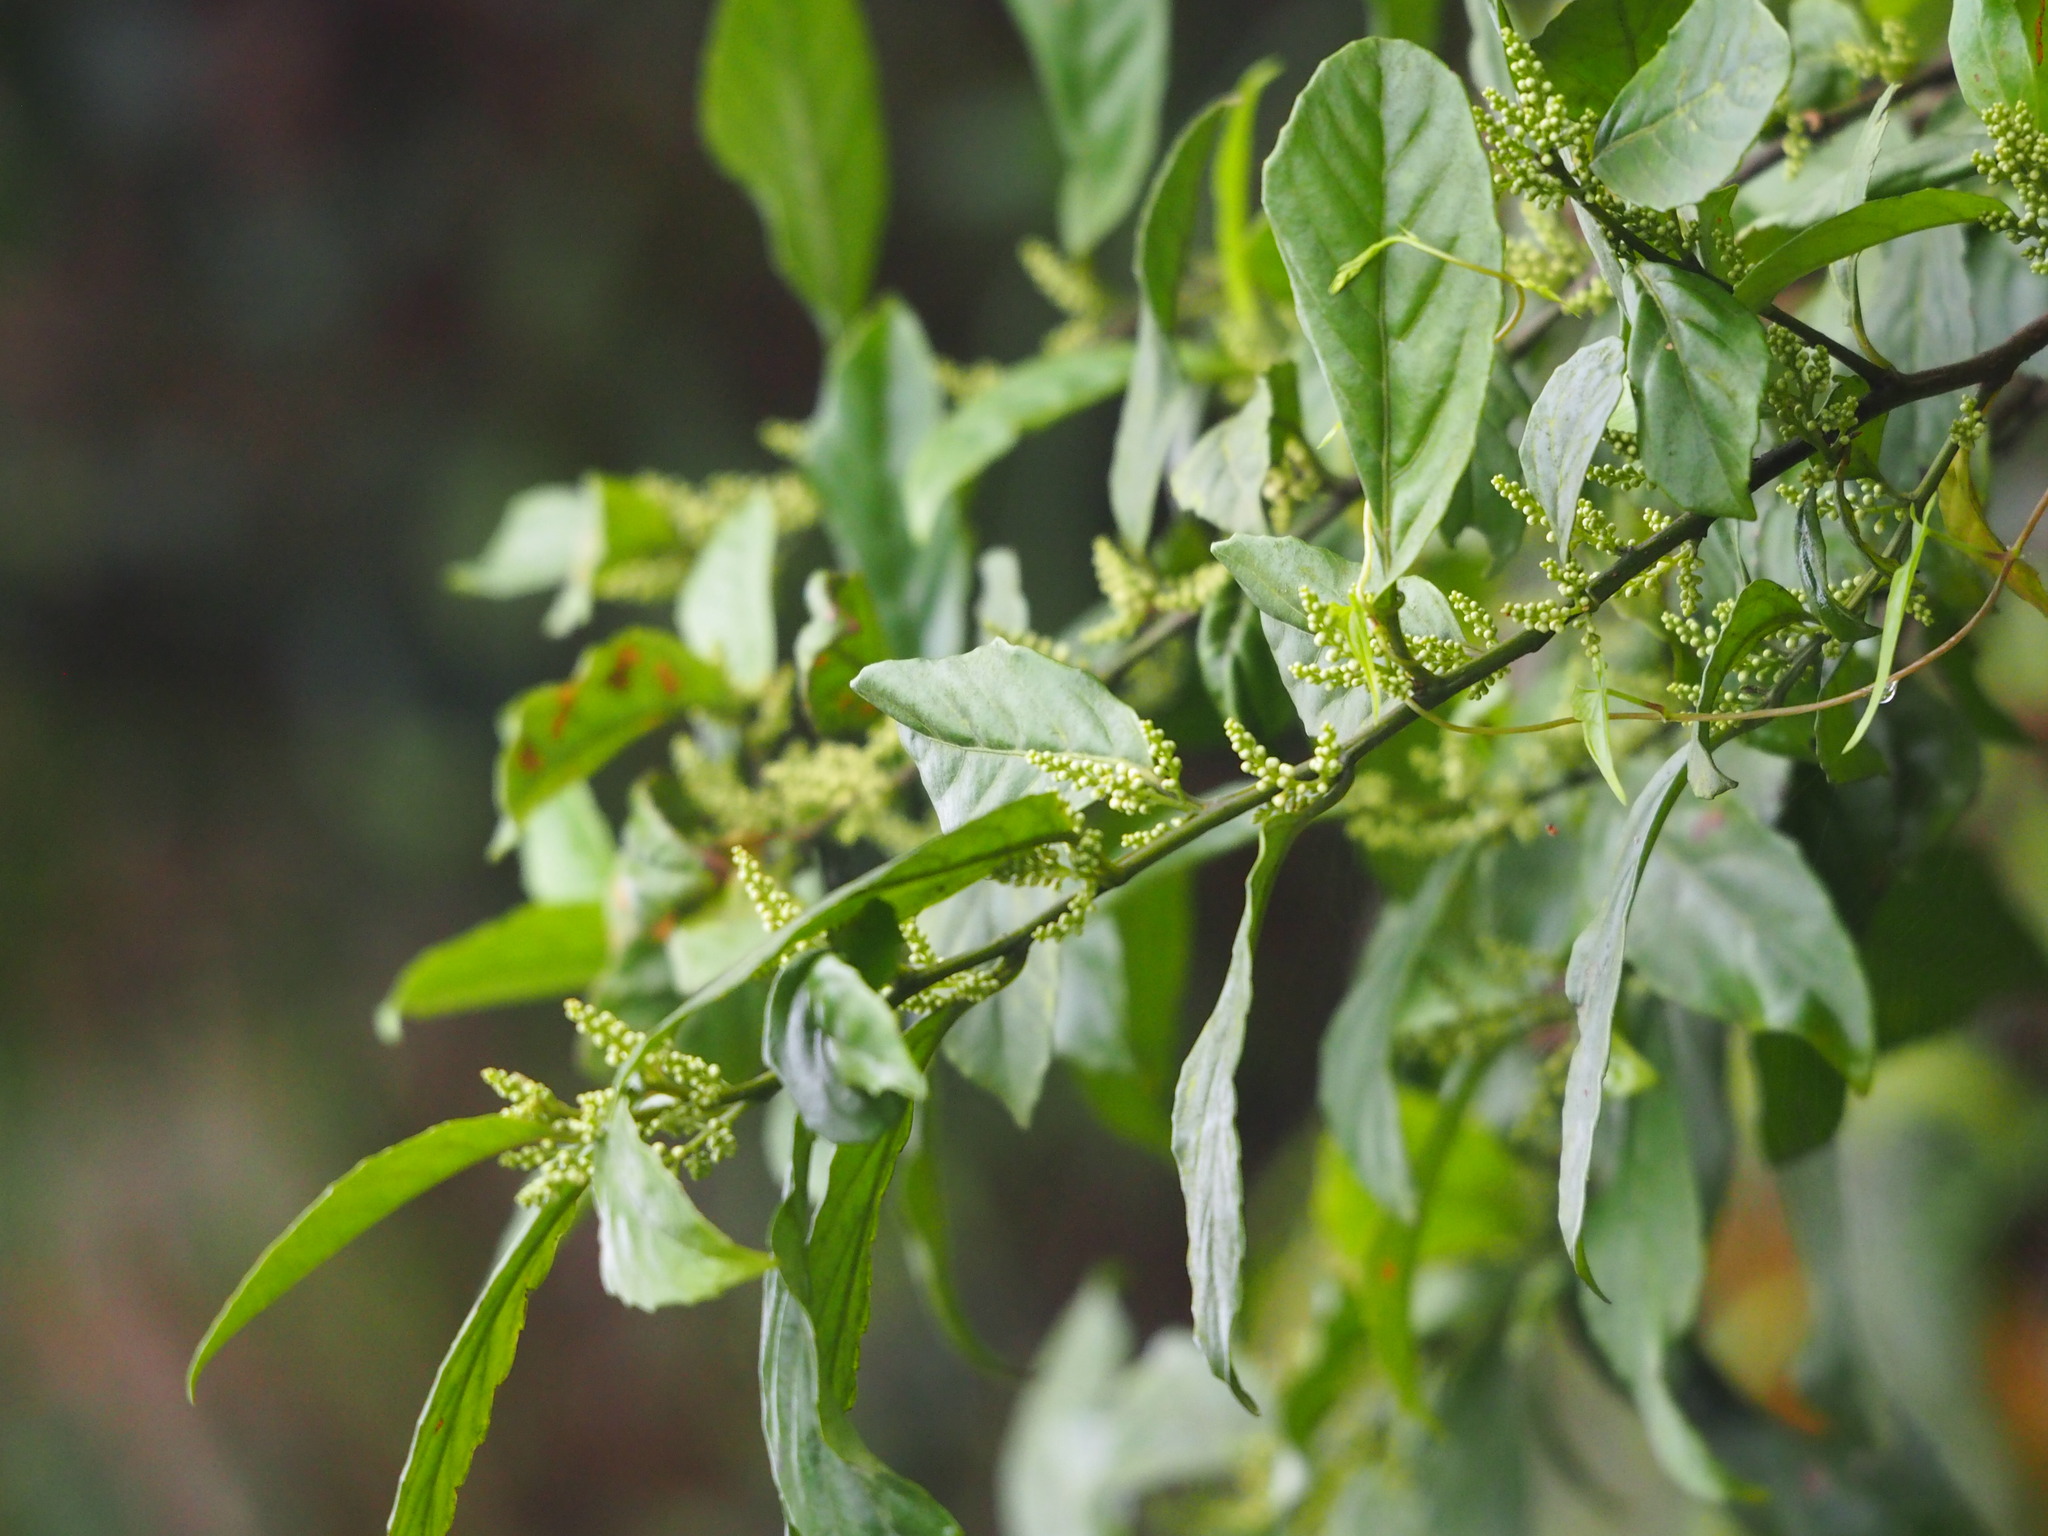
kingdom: Plantae
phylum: Tracheophyta
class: Magnoliopsida
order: Ericales
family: Primulaceae
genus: Maesa
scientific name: Maesa perlaria
